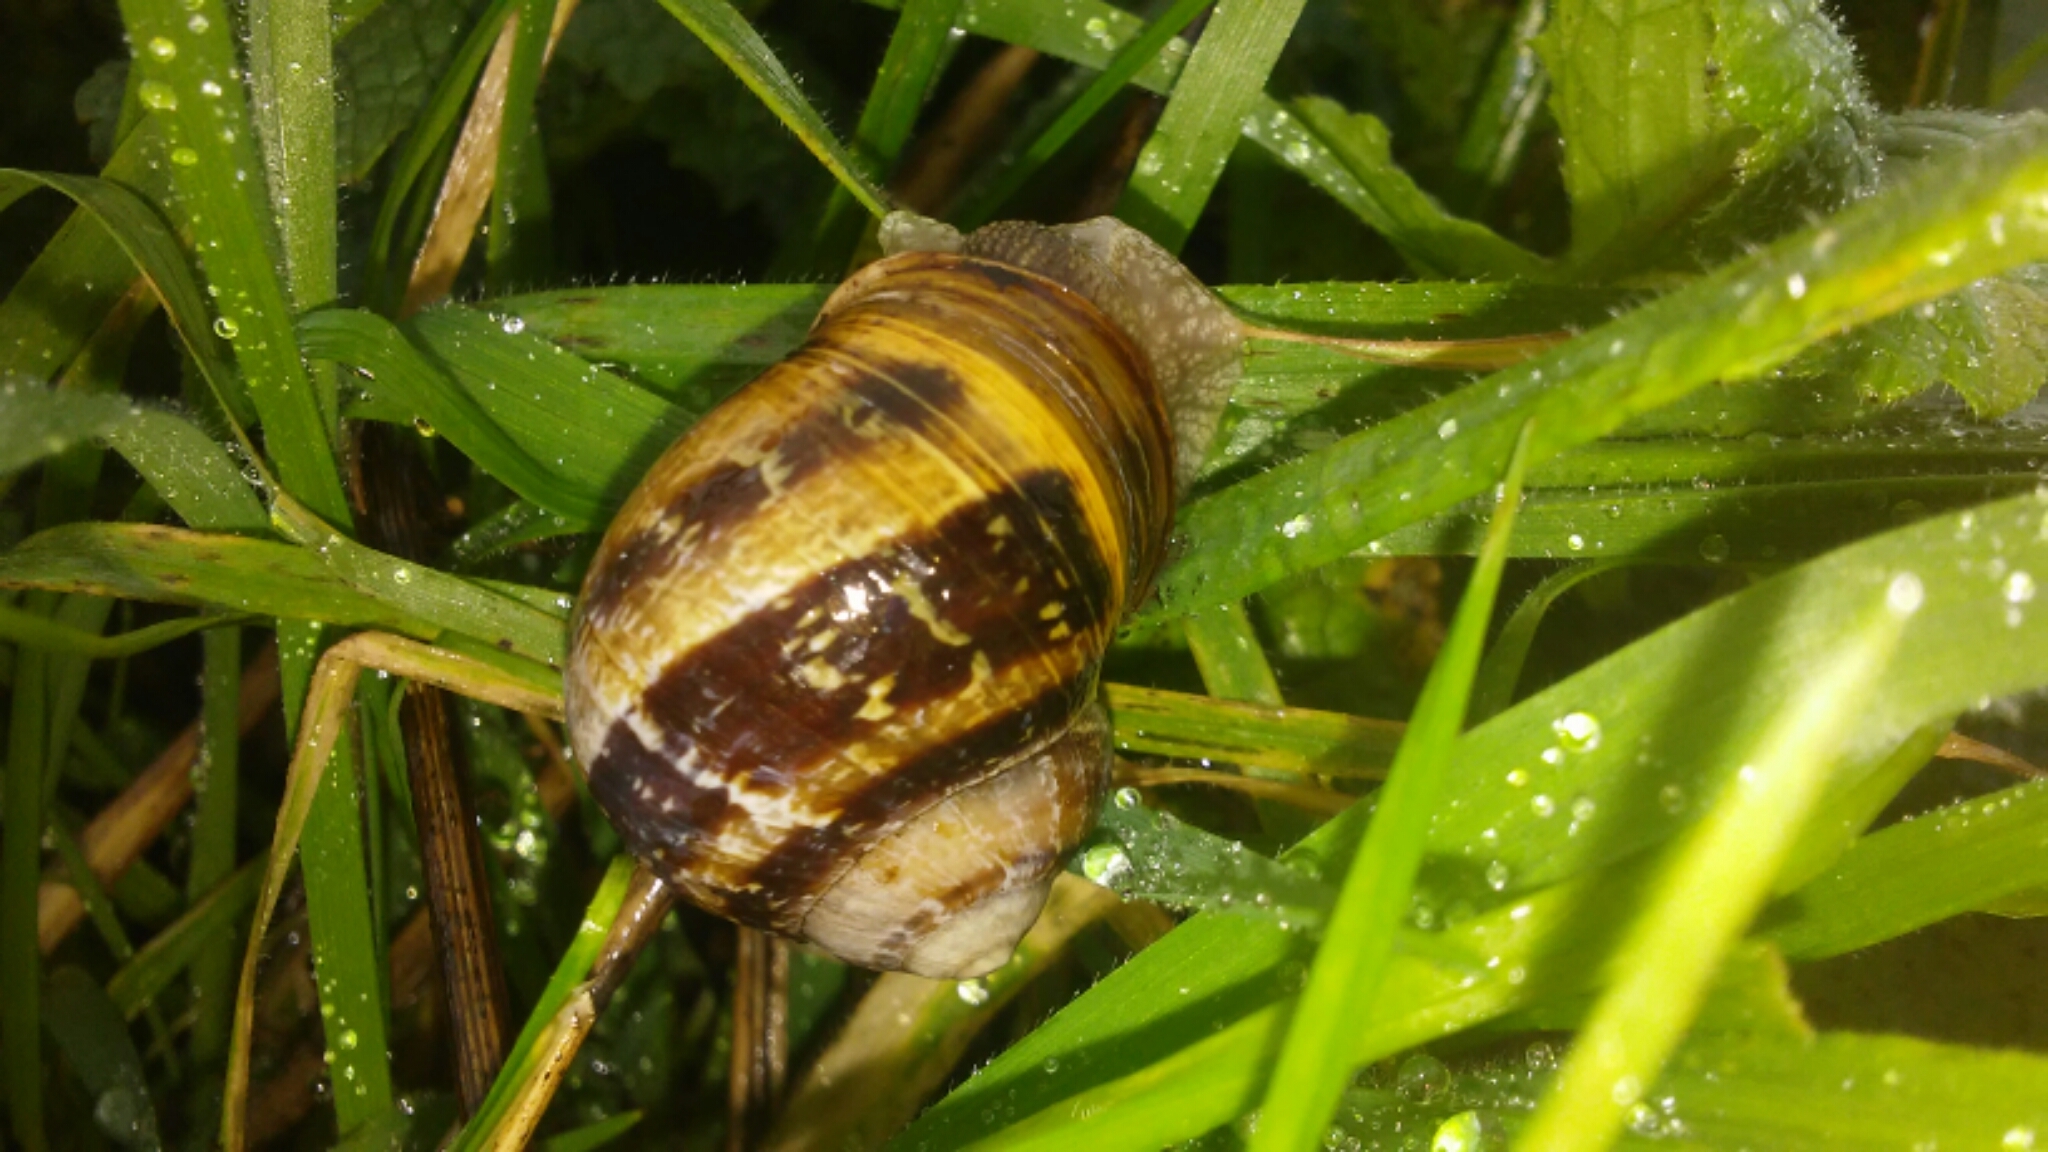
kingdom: Animalia
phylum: Mollusca
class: Gastropoda
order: Stylommatophora
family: Helicidae
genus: Cornu
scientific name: Cornu aspersum
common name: Brown garden snail
